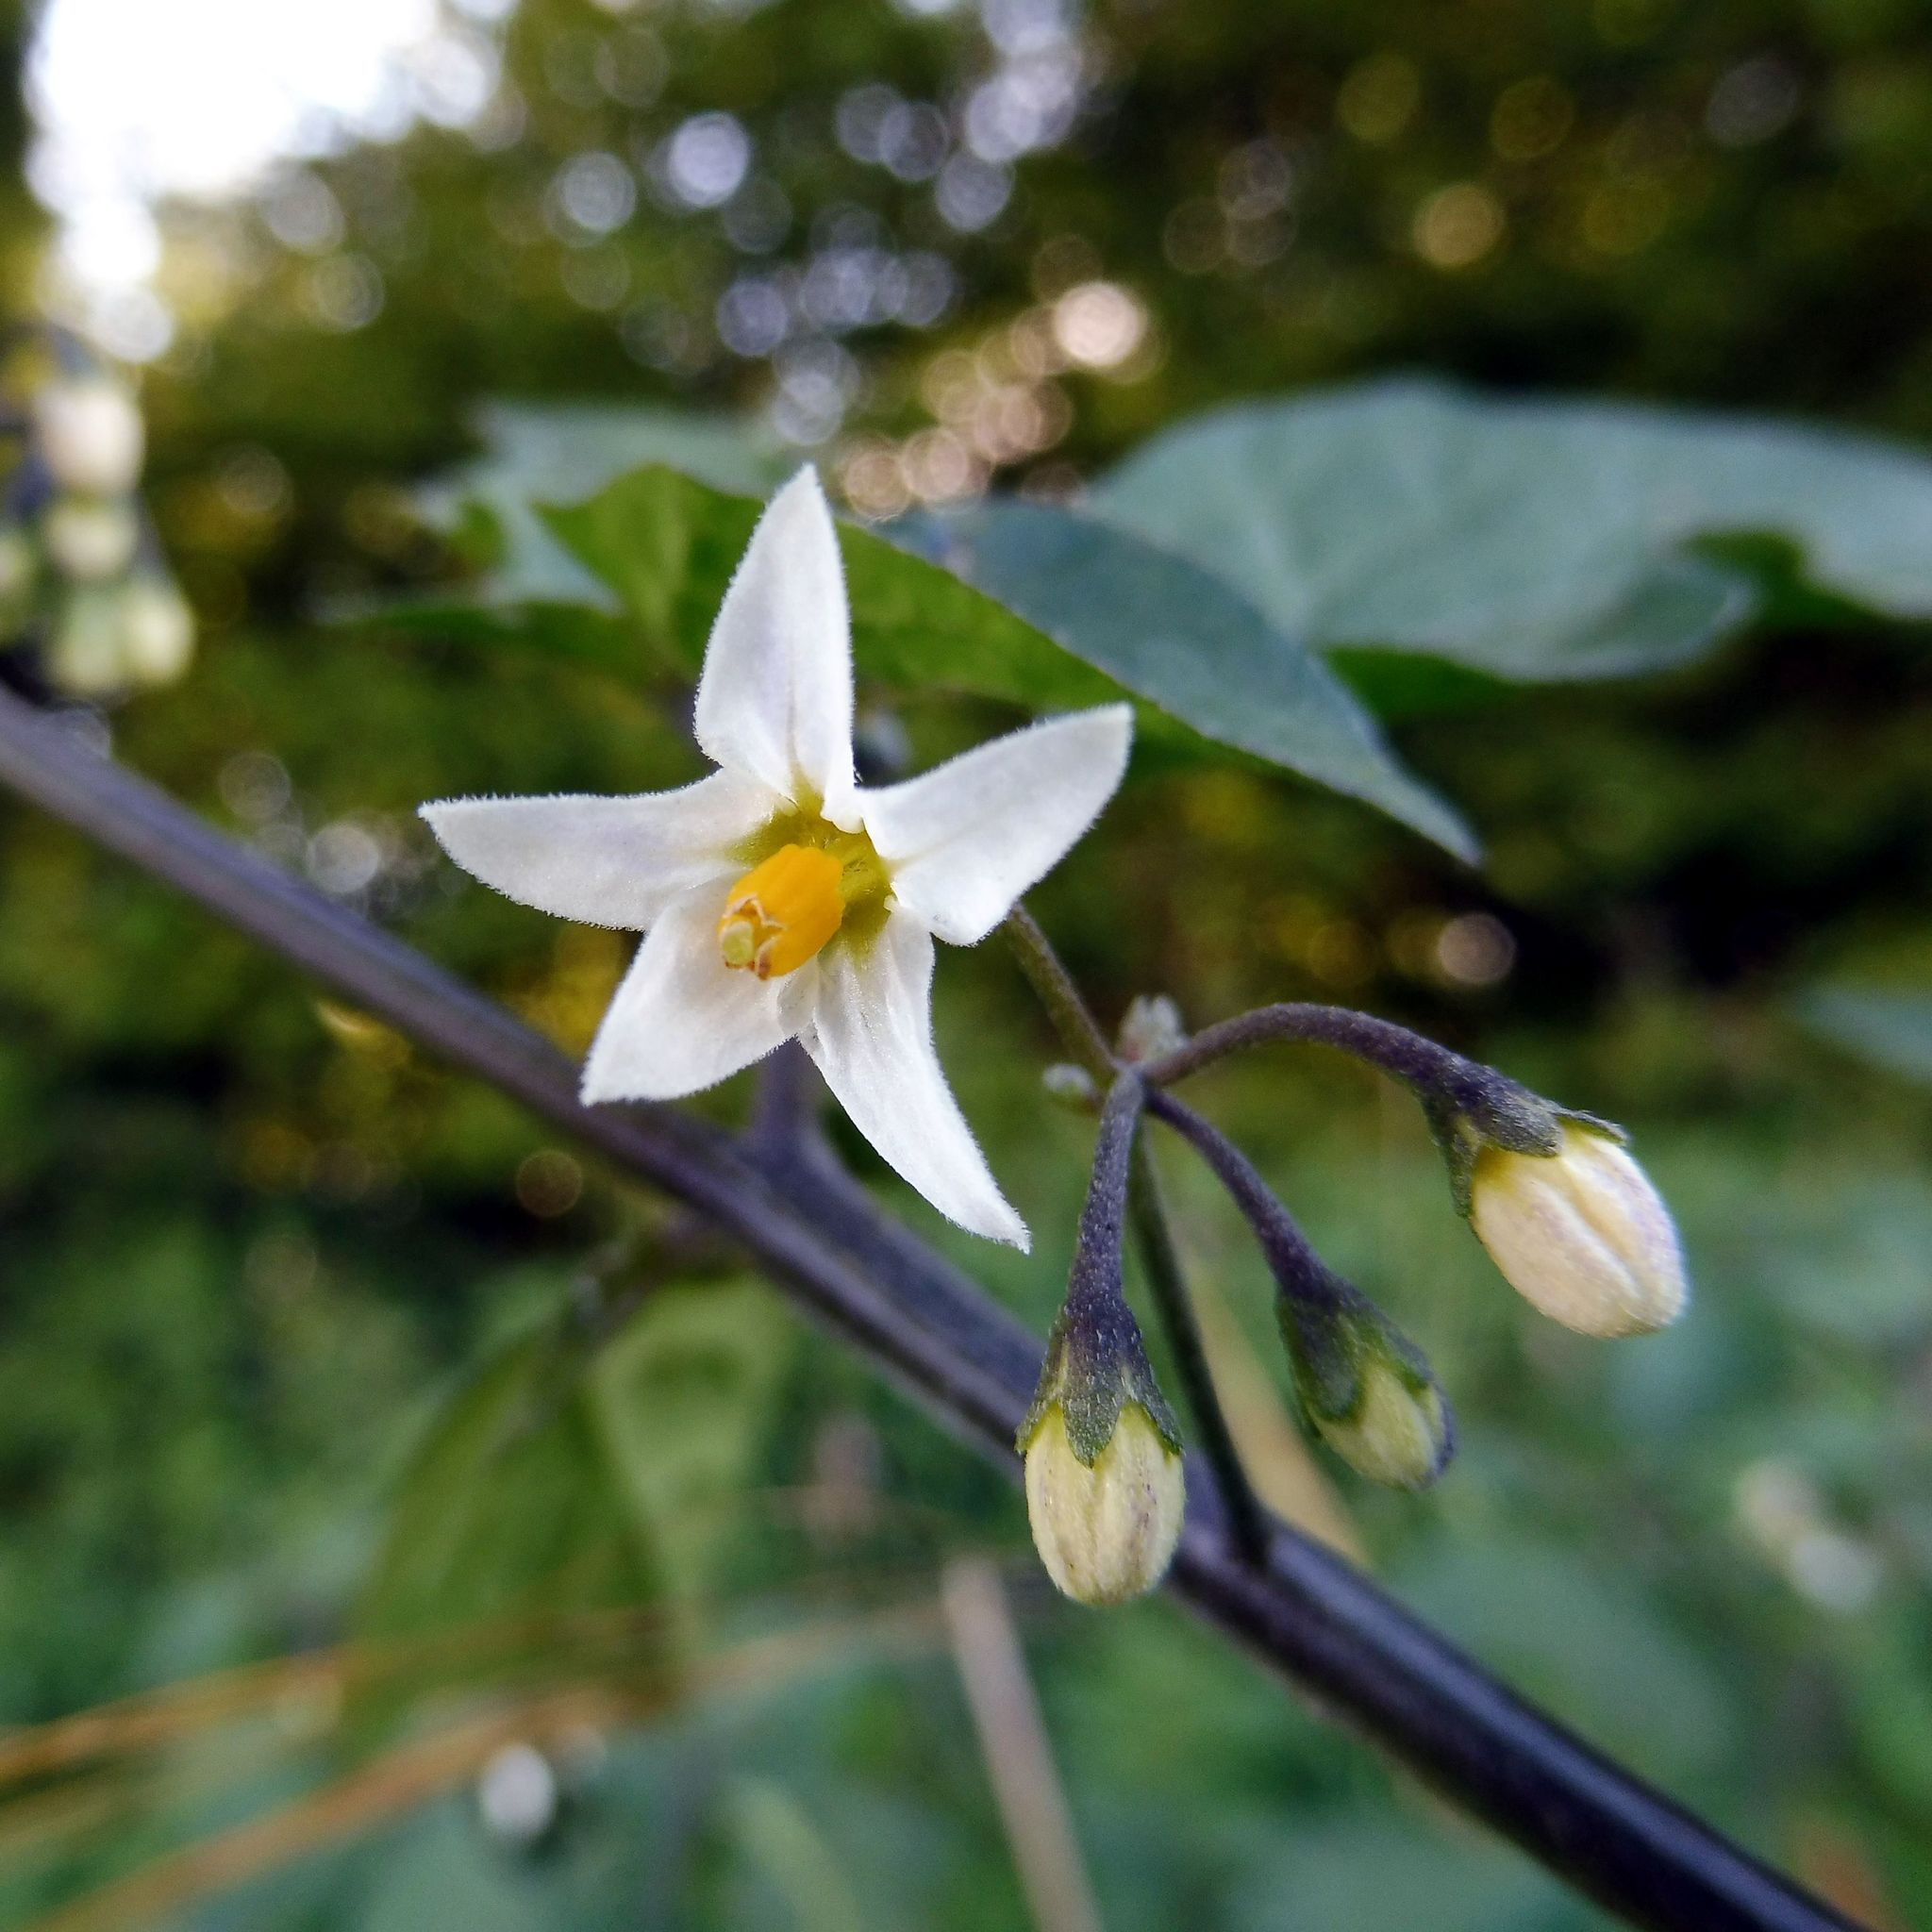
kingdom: Plantae
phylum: Tracheophyta
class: Magnoliopsida
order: Solanales
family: Solanaceae
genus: Solanum
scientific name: Solanum nigrum
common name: Black nightshade
